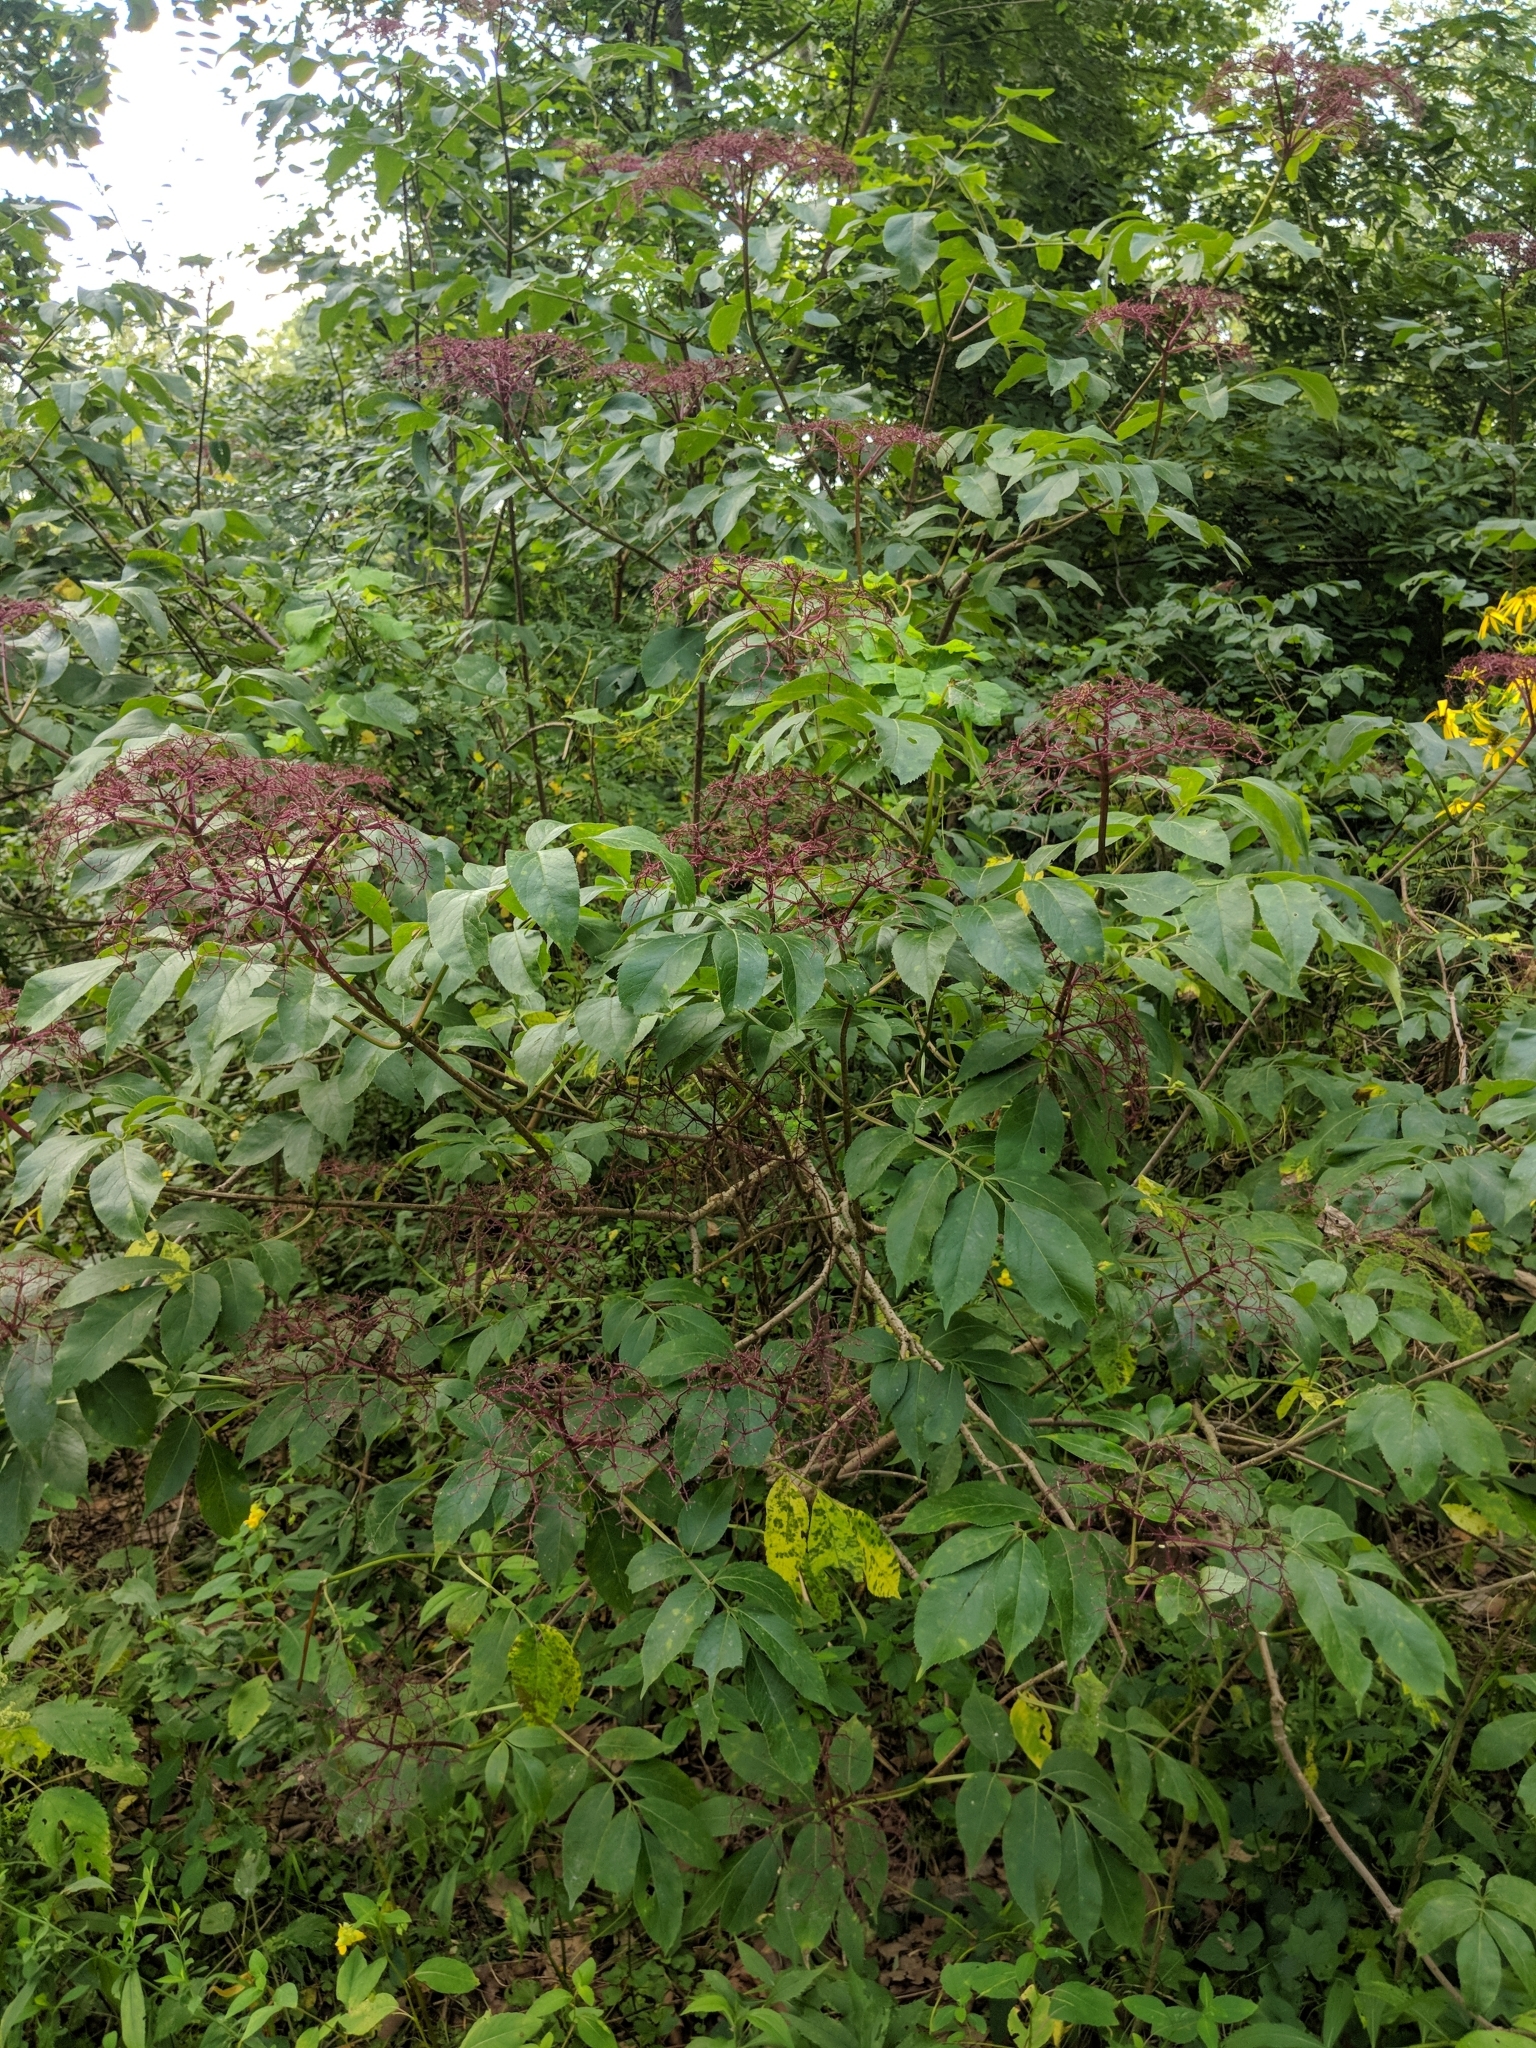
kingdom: Plantae
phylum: Tracheophyta
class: Magnoliopsida
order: Dipsacales
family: Viburnaceae
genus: Sambucus
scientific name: Sambucus canadensis
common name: American elder
